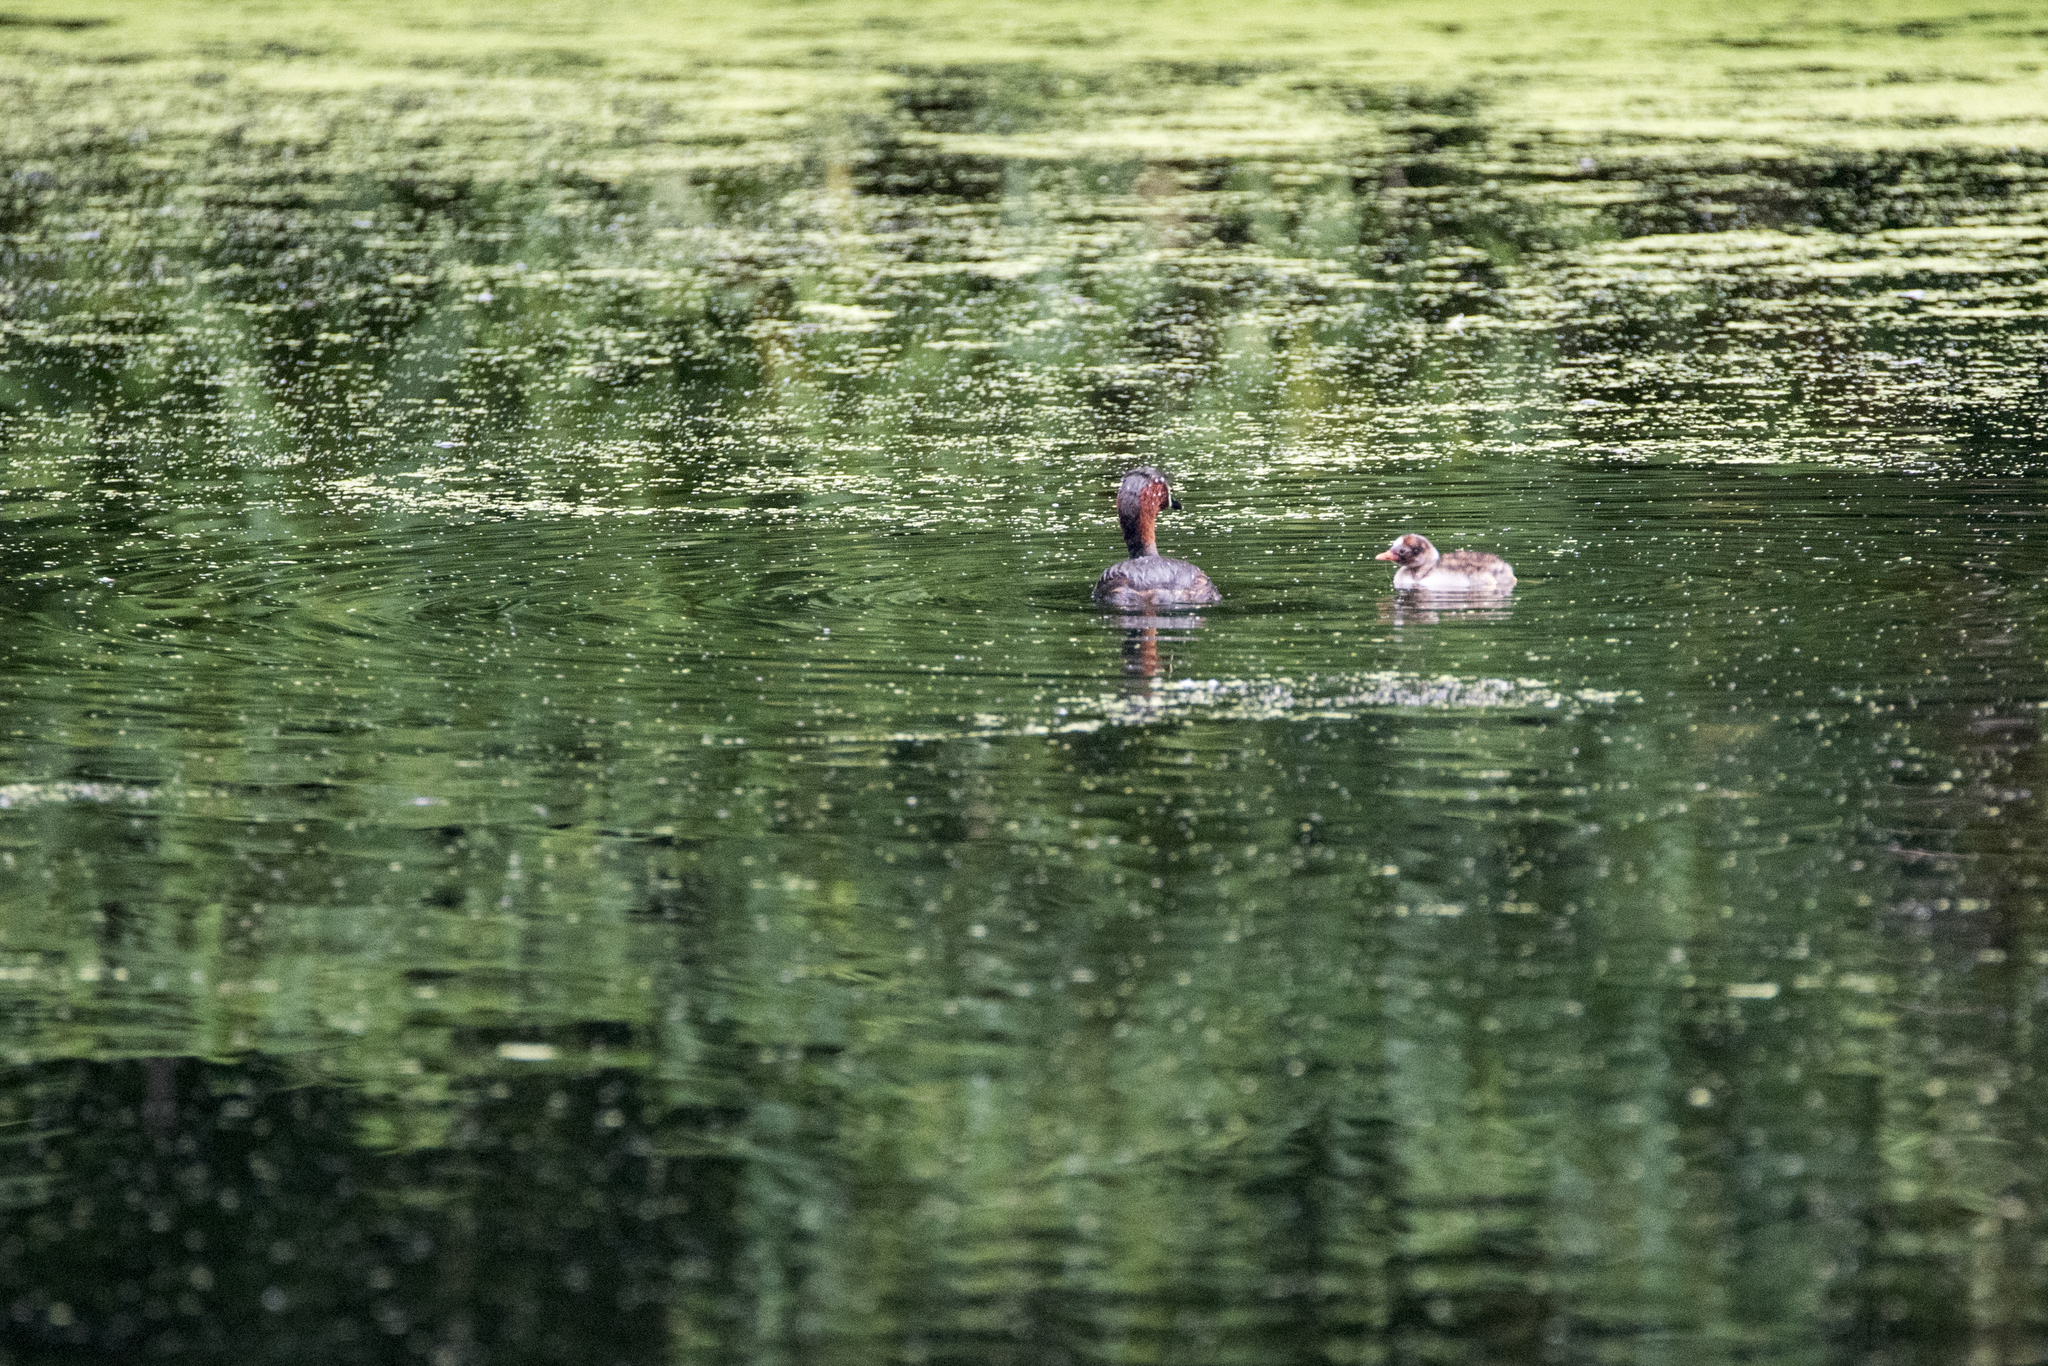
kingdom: Animalia
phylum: Chordata
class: Aves
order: Podicipediformes
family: Podicipedidae
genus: Tachybaptus
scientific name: Tachybaptus ruficollis
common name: Little grebe
